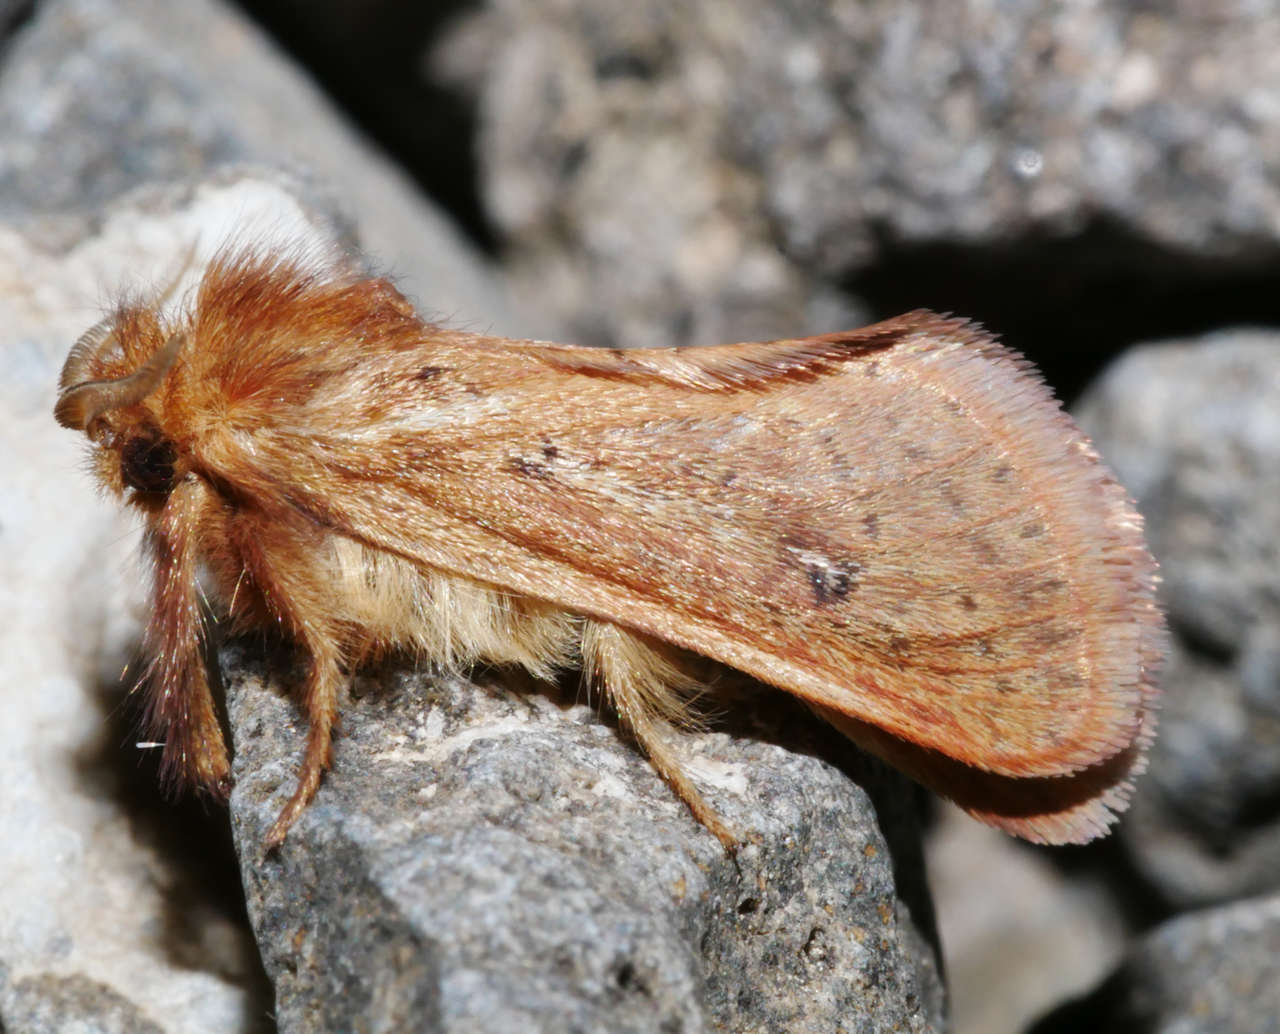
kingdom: Animalia
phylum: Arthropoda
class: Insecta
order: Lepidoptera
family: Hepialidae
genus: Fraus
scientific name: Fraus simulans
